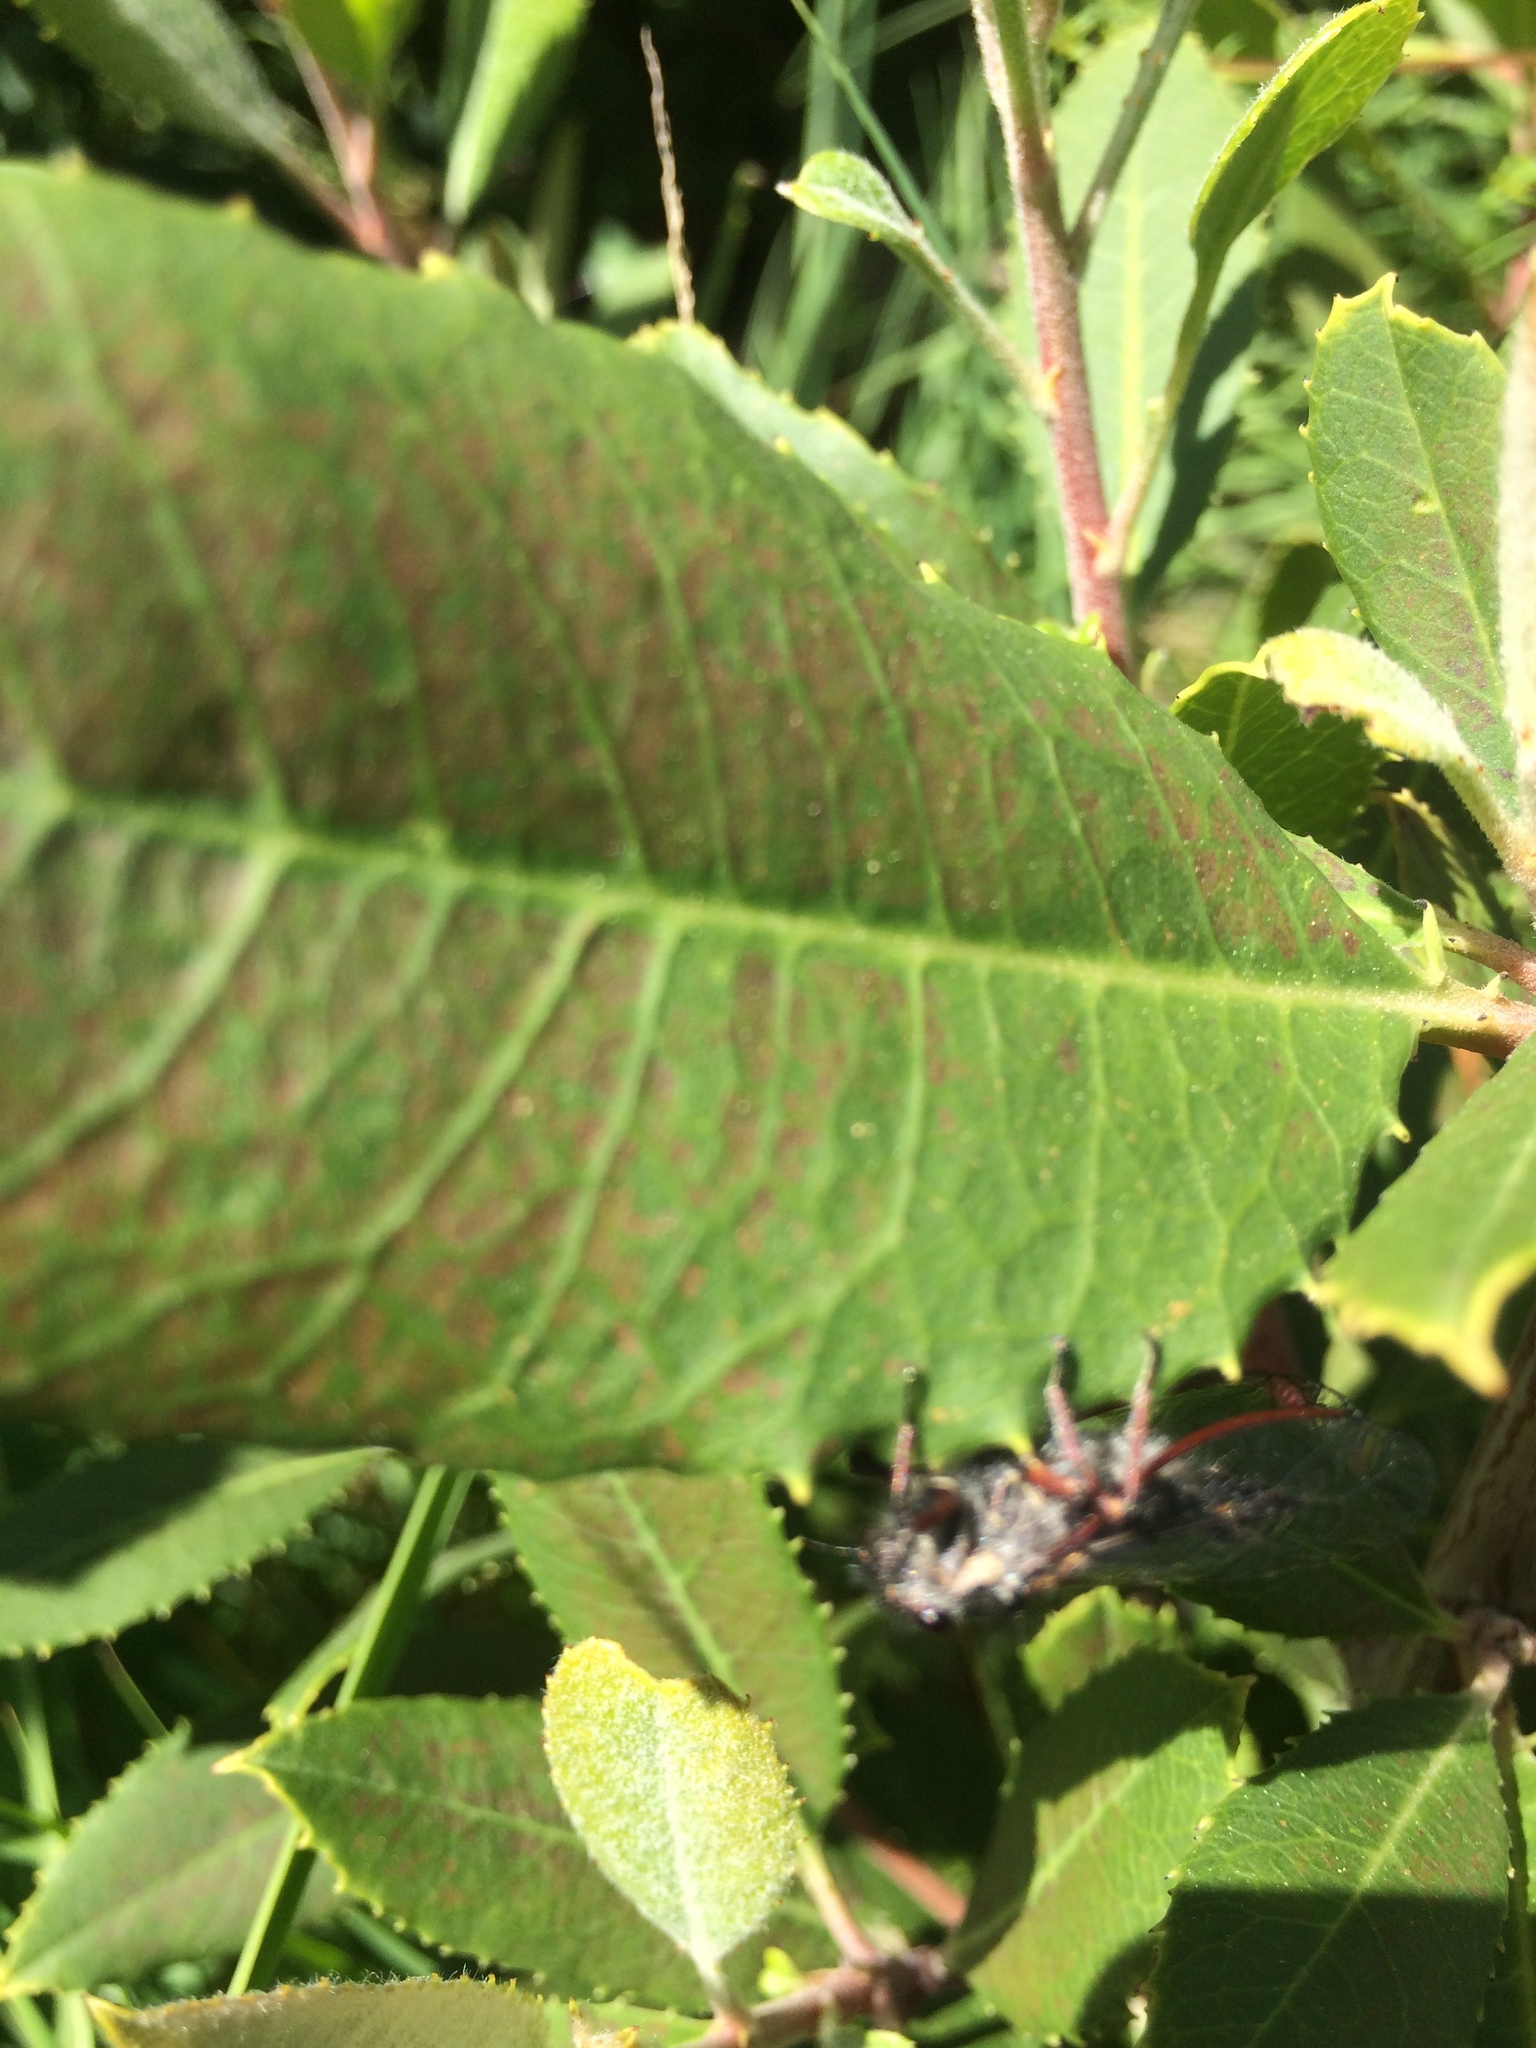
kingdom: Plantae
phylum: Tracheophyta
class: Magnoliopsida
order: Rosales
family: Rosaceae
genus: Heteromeles
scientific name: Heteromeles arbutifolia
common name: California-holly
